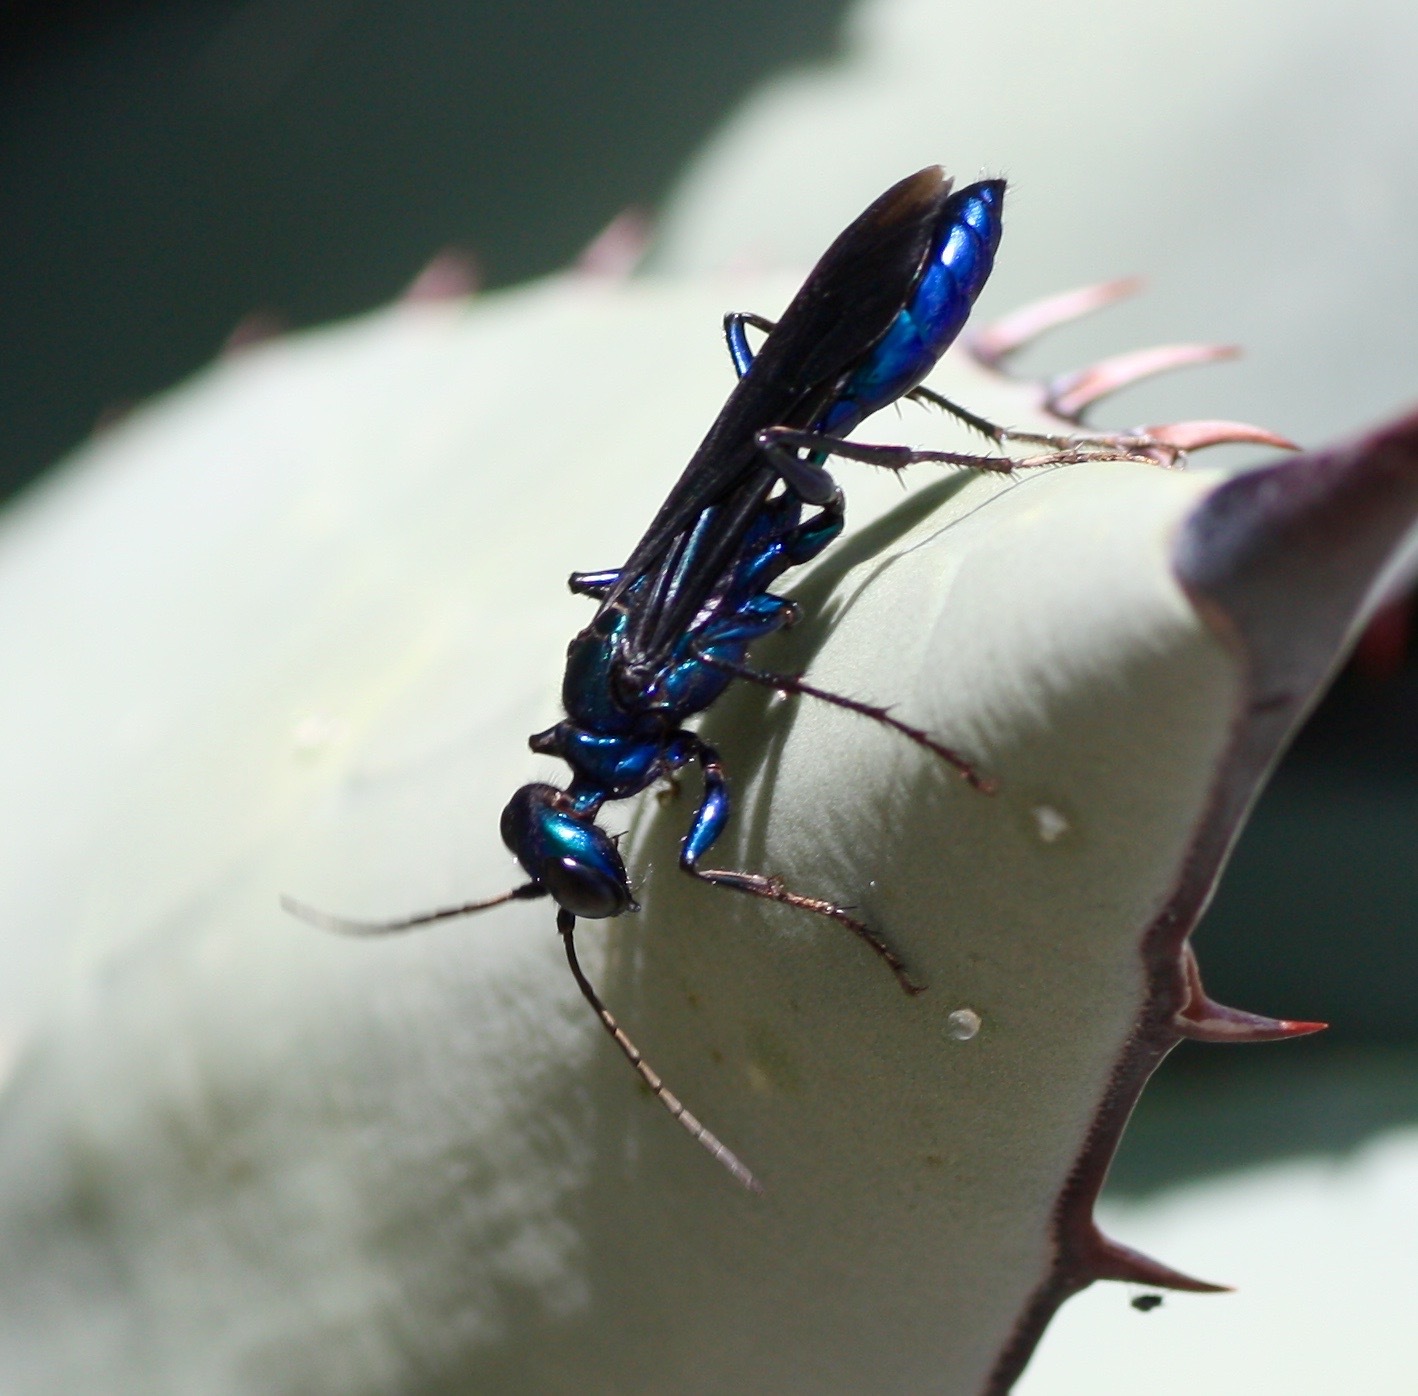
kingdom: Animalia
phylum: Arthropoda
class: Insecta
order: Hymenoptera
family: Sphecidae
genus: Chlorion
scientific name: Chlorion aerarium
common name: Steel-blue cricket hunter
